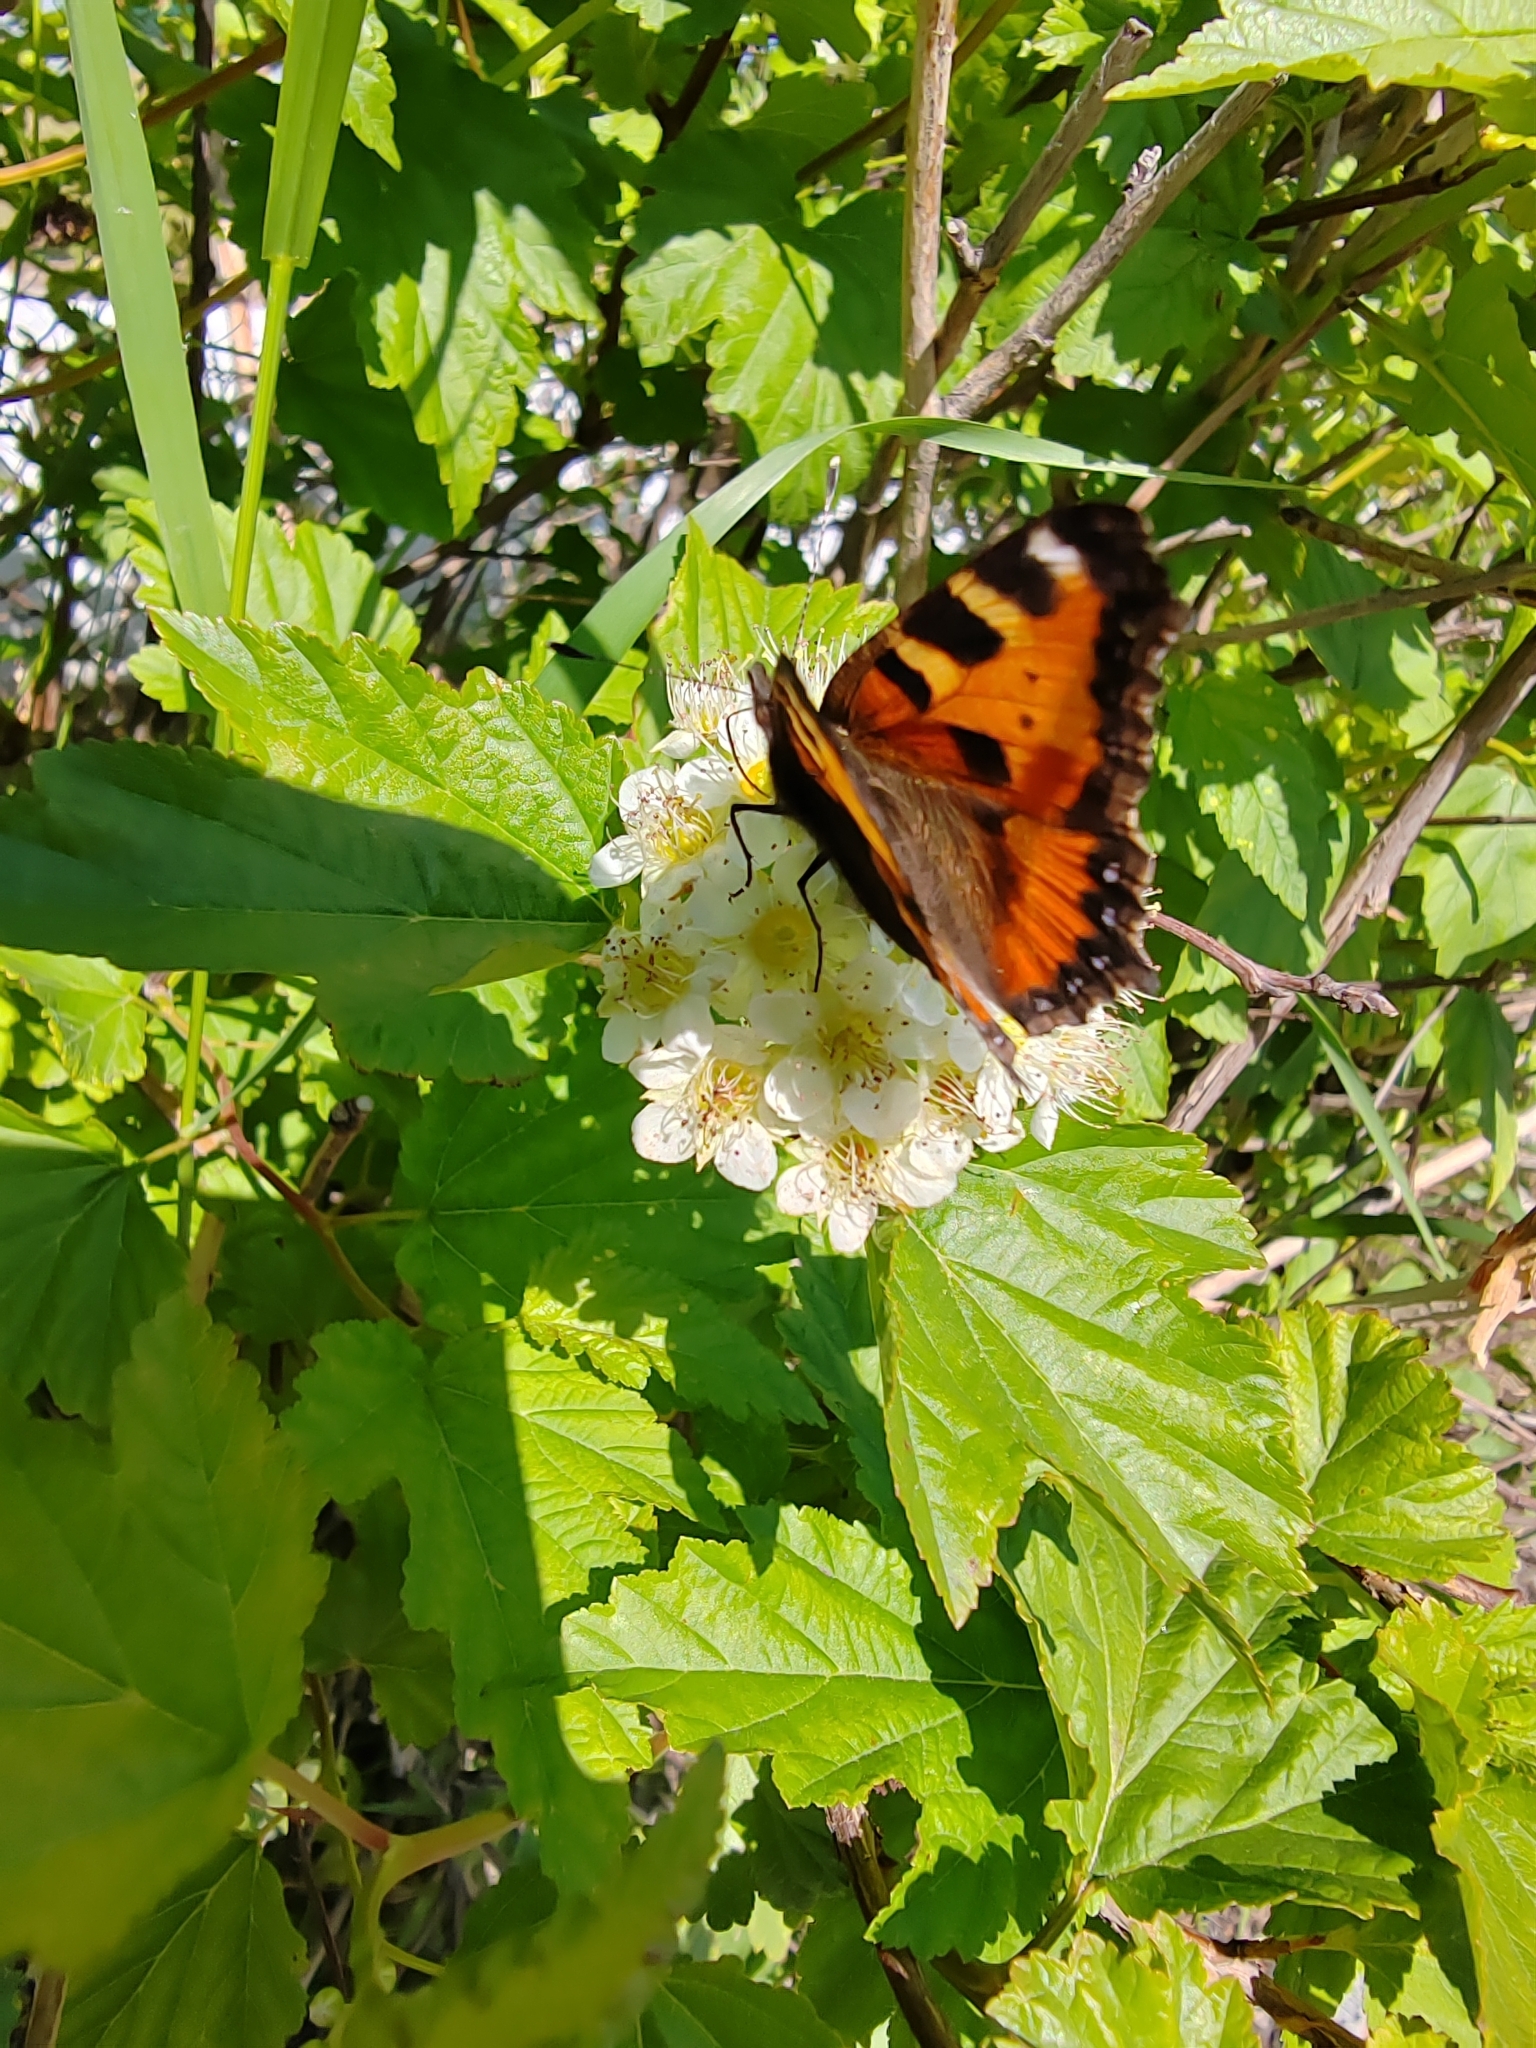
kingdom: Animalia
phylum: Arthropoda
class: Insecta
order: Lepidoptera
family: Nymphalidae
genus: Aglais
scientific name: Aglais urticae
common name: Small tortoiseshell
